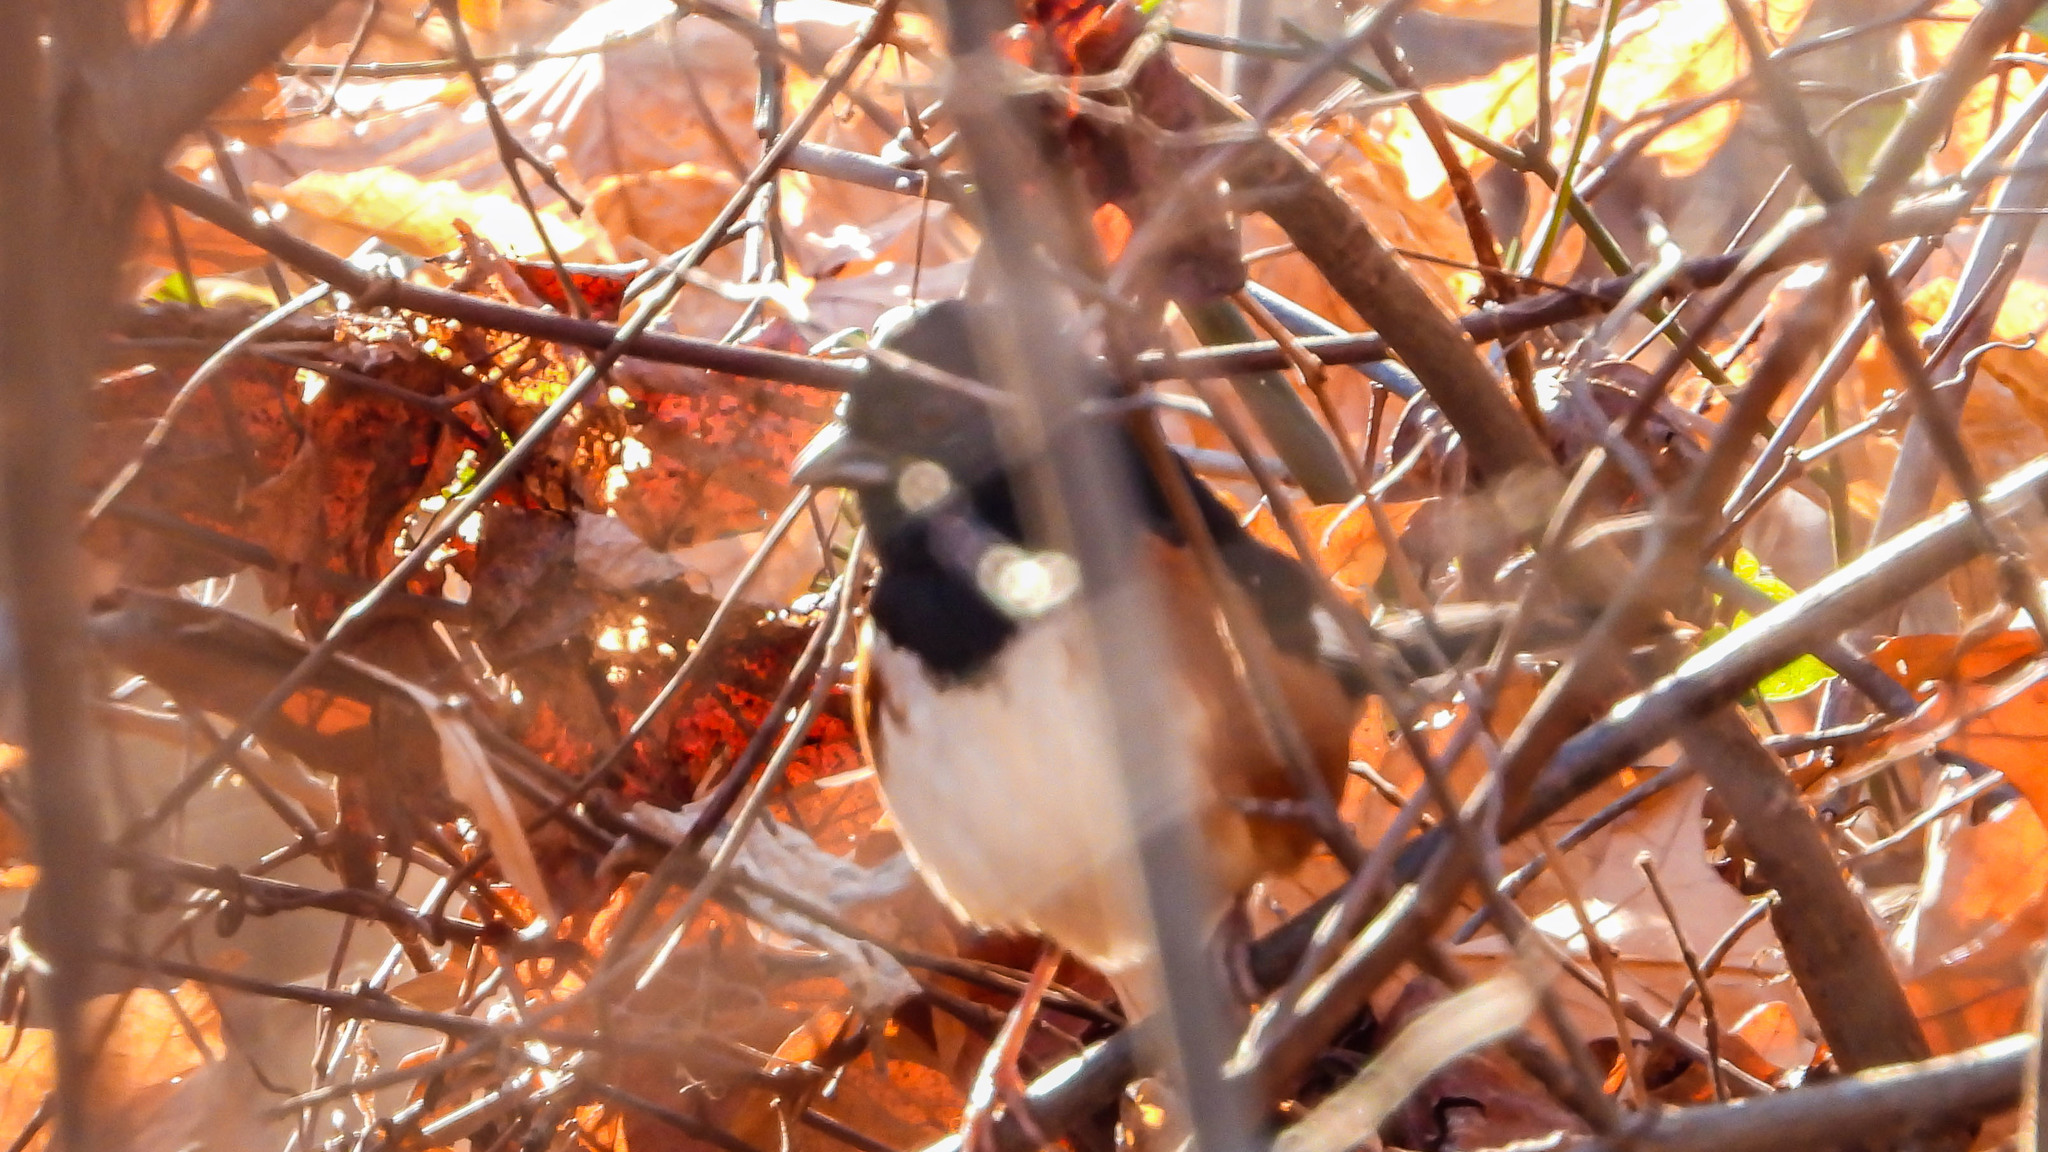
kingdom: Animalia
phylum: Chordata
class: Aves
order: Passeriformes
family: Passerellidae
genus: Pipilo
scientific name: Pipilo erythrophthalmus
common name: Eastern towhee
